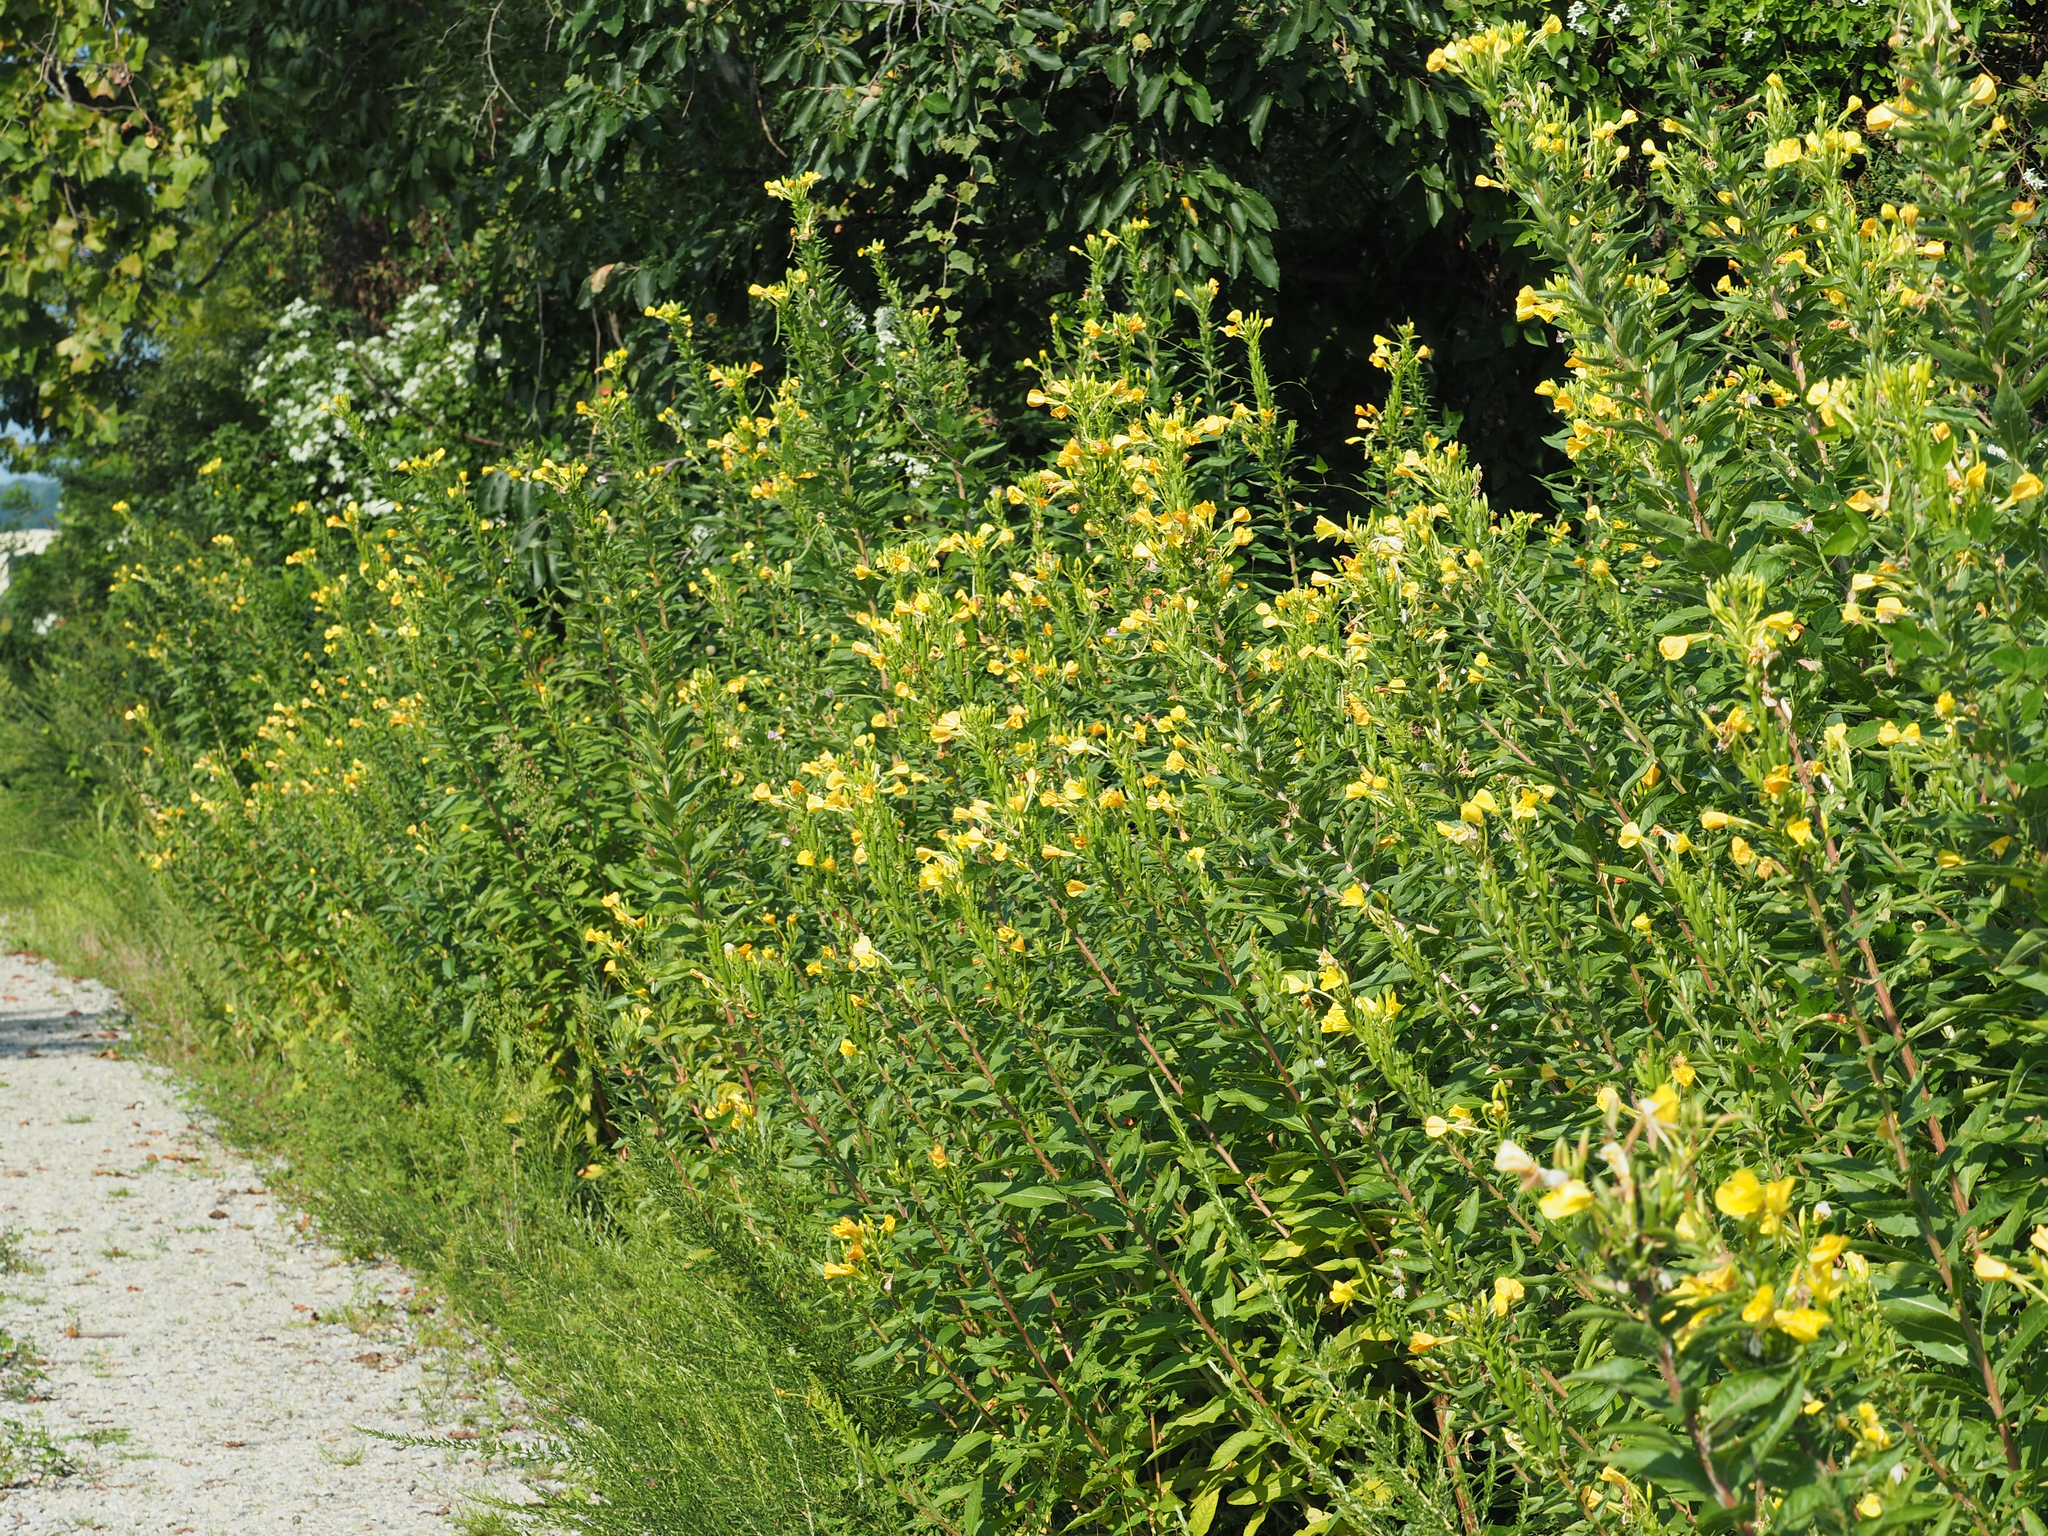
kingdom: Plantae
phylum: Tracheophyta
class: Magnoliopsida
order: Myrtales
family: Onagraceae
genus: Oenothera
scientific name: Oenothera biennis
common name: Common evening-primrose
